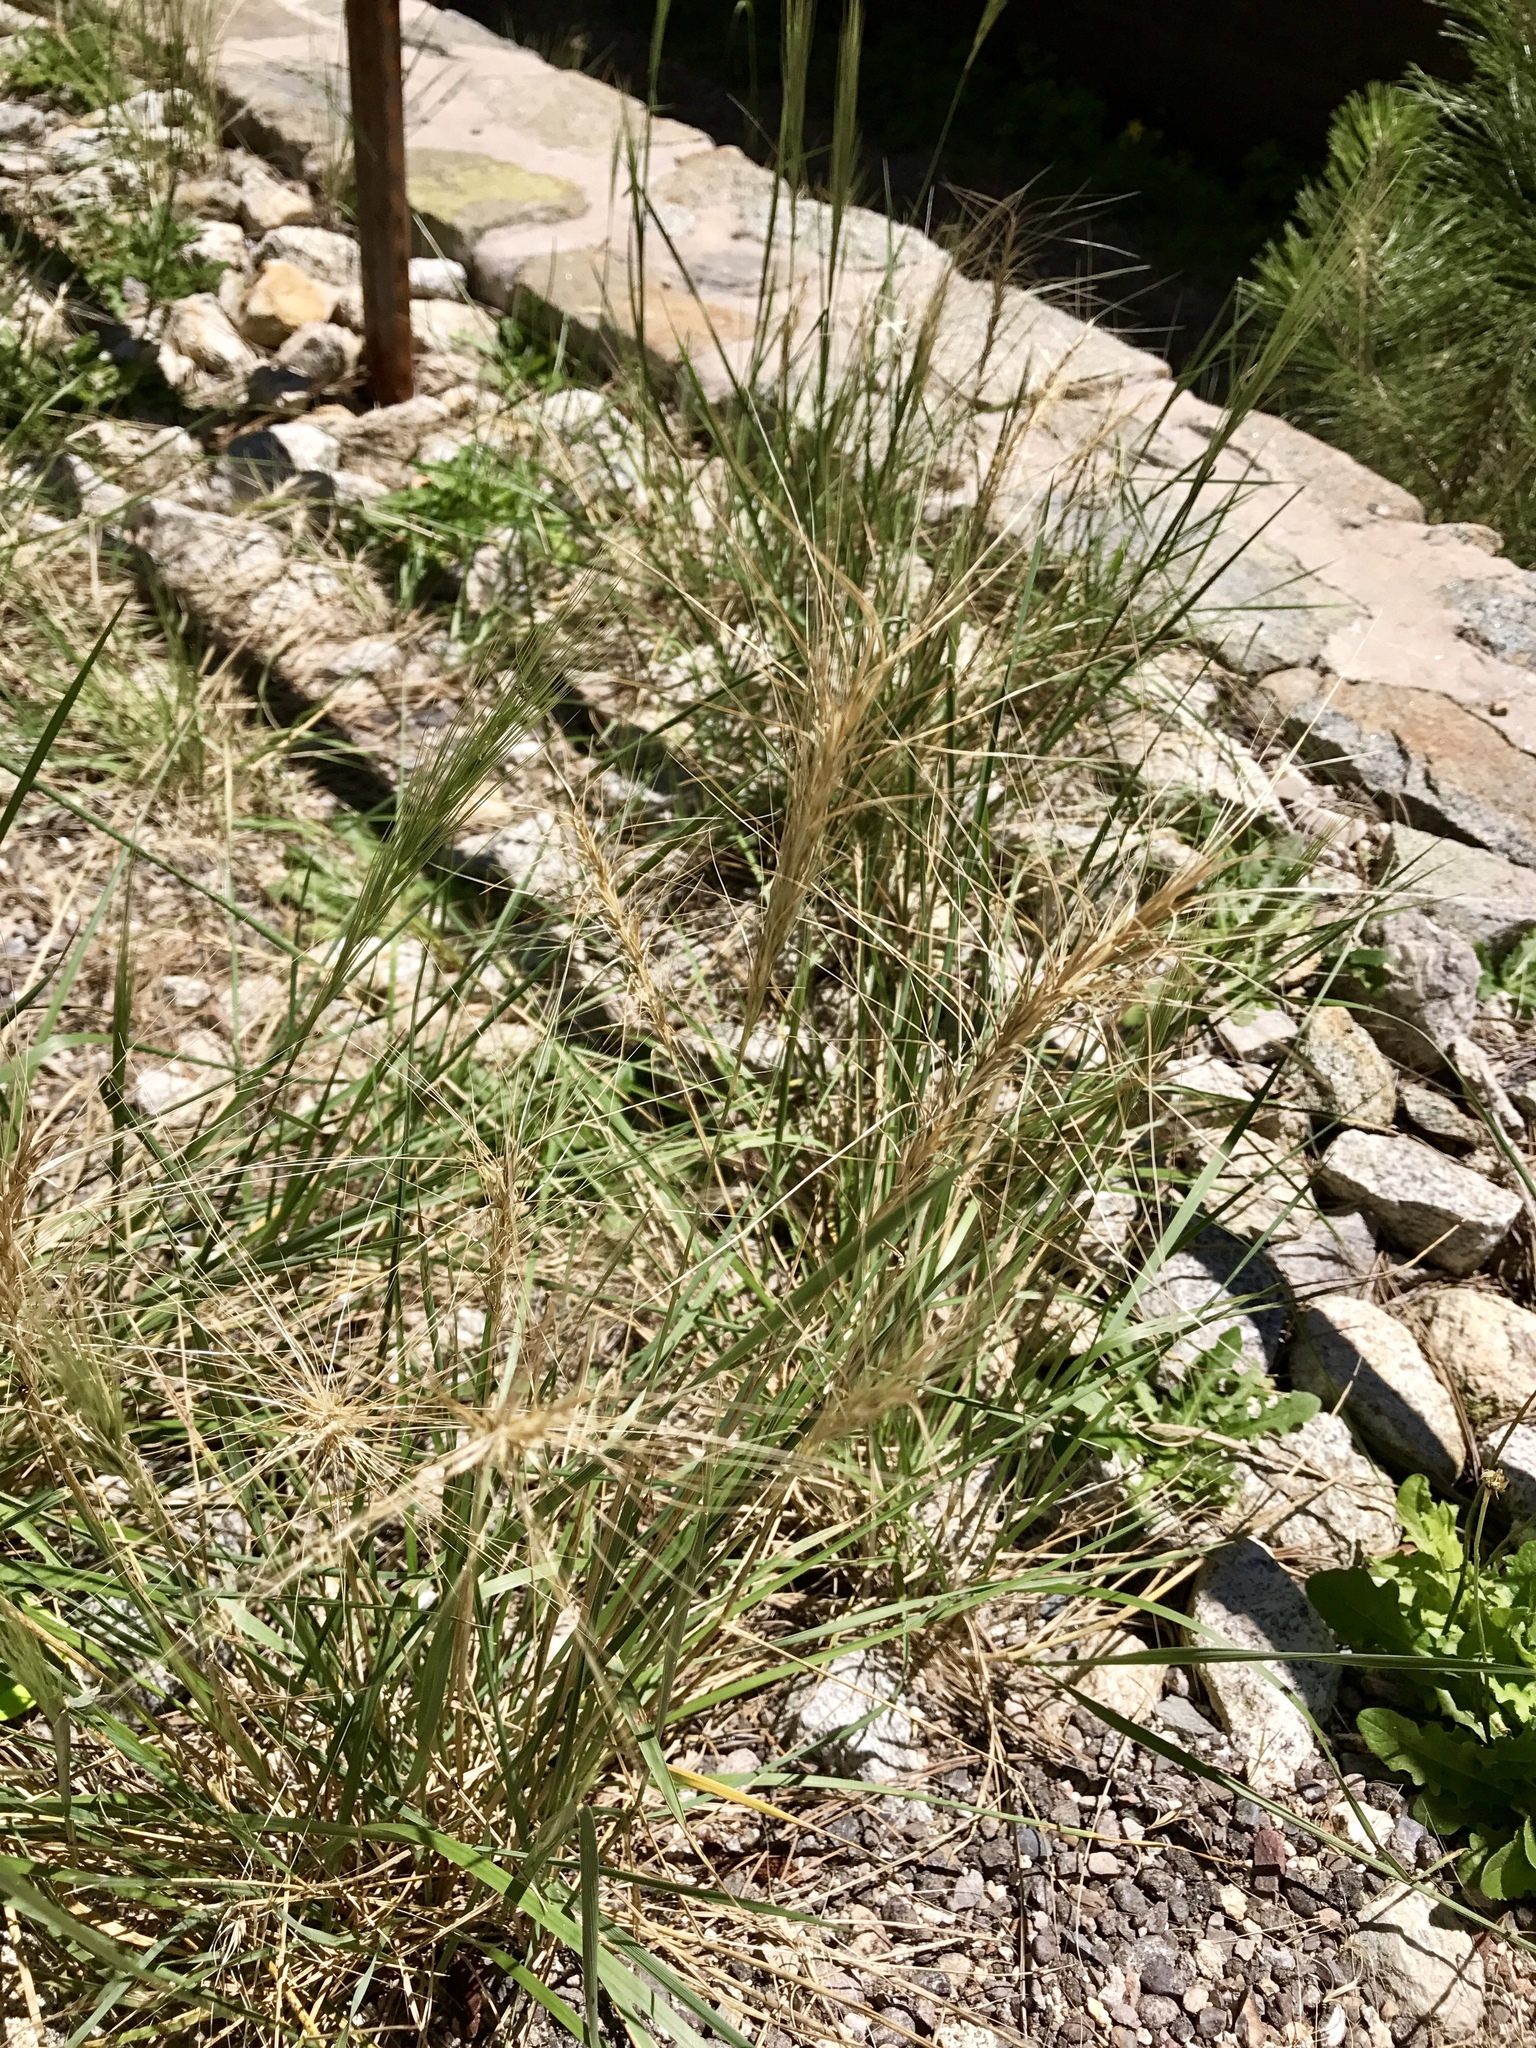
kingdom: Plantae
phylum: Tracheophyta
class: Liliopsida
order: Poales
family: Poaceae
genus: Elymus
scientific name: Elymus elymoides
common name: Bottlebrush squirreltail
